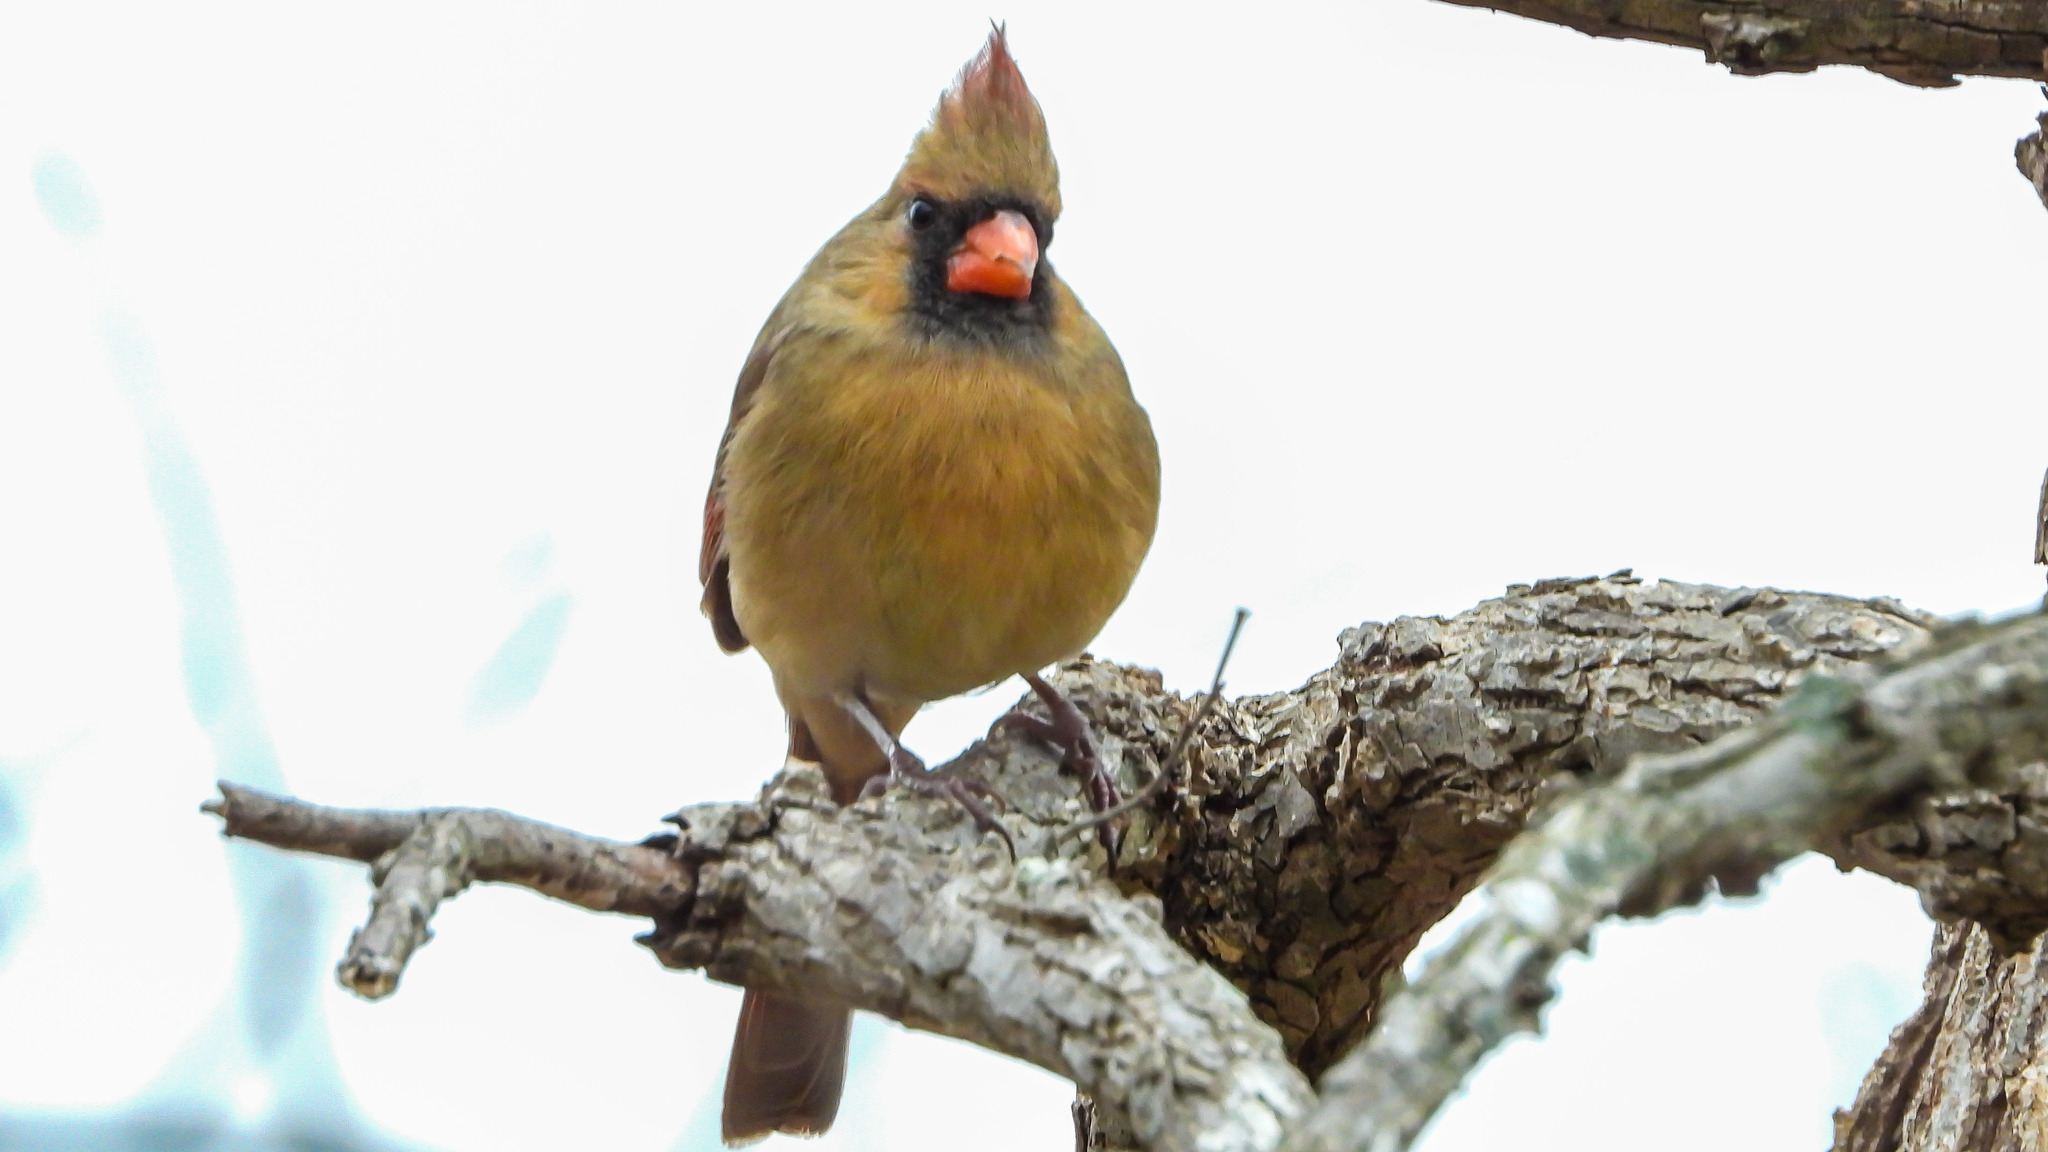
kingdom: Animalia
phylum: Chordata
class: Aves
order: Passeriformes
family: Cardinalidae
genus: Cardinalis
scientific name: Cardinalis cardinalis
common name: Northern cardinal
